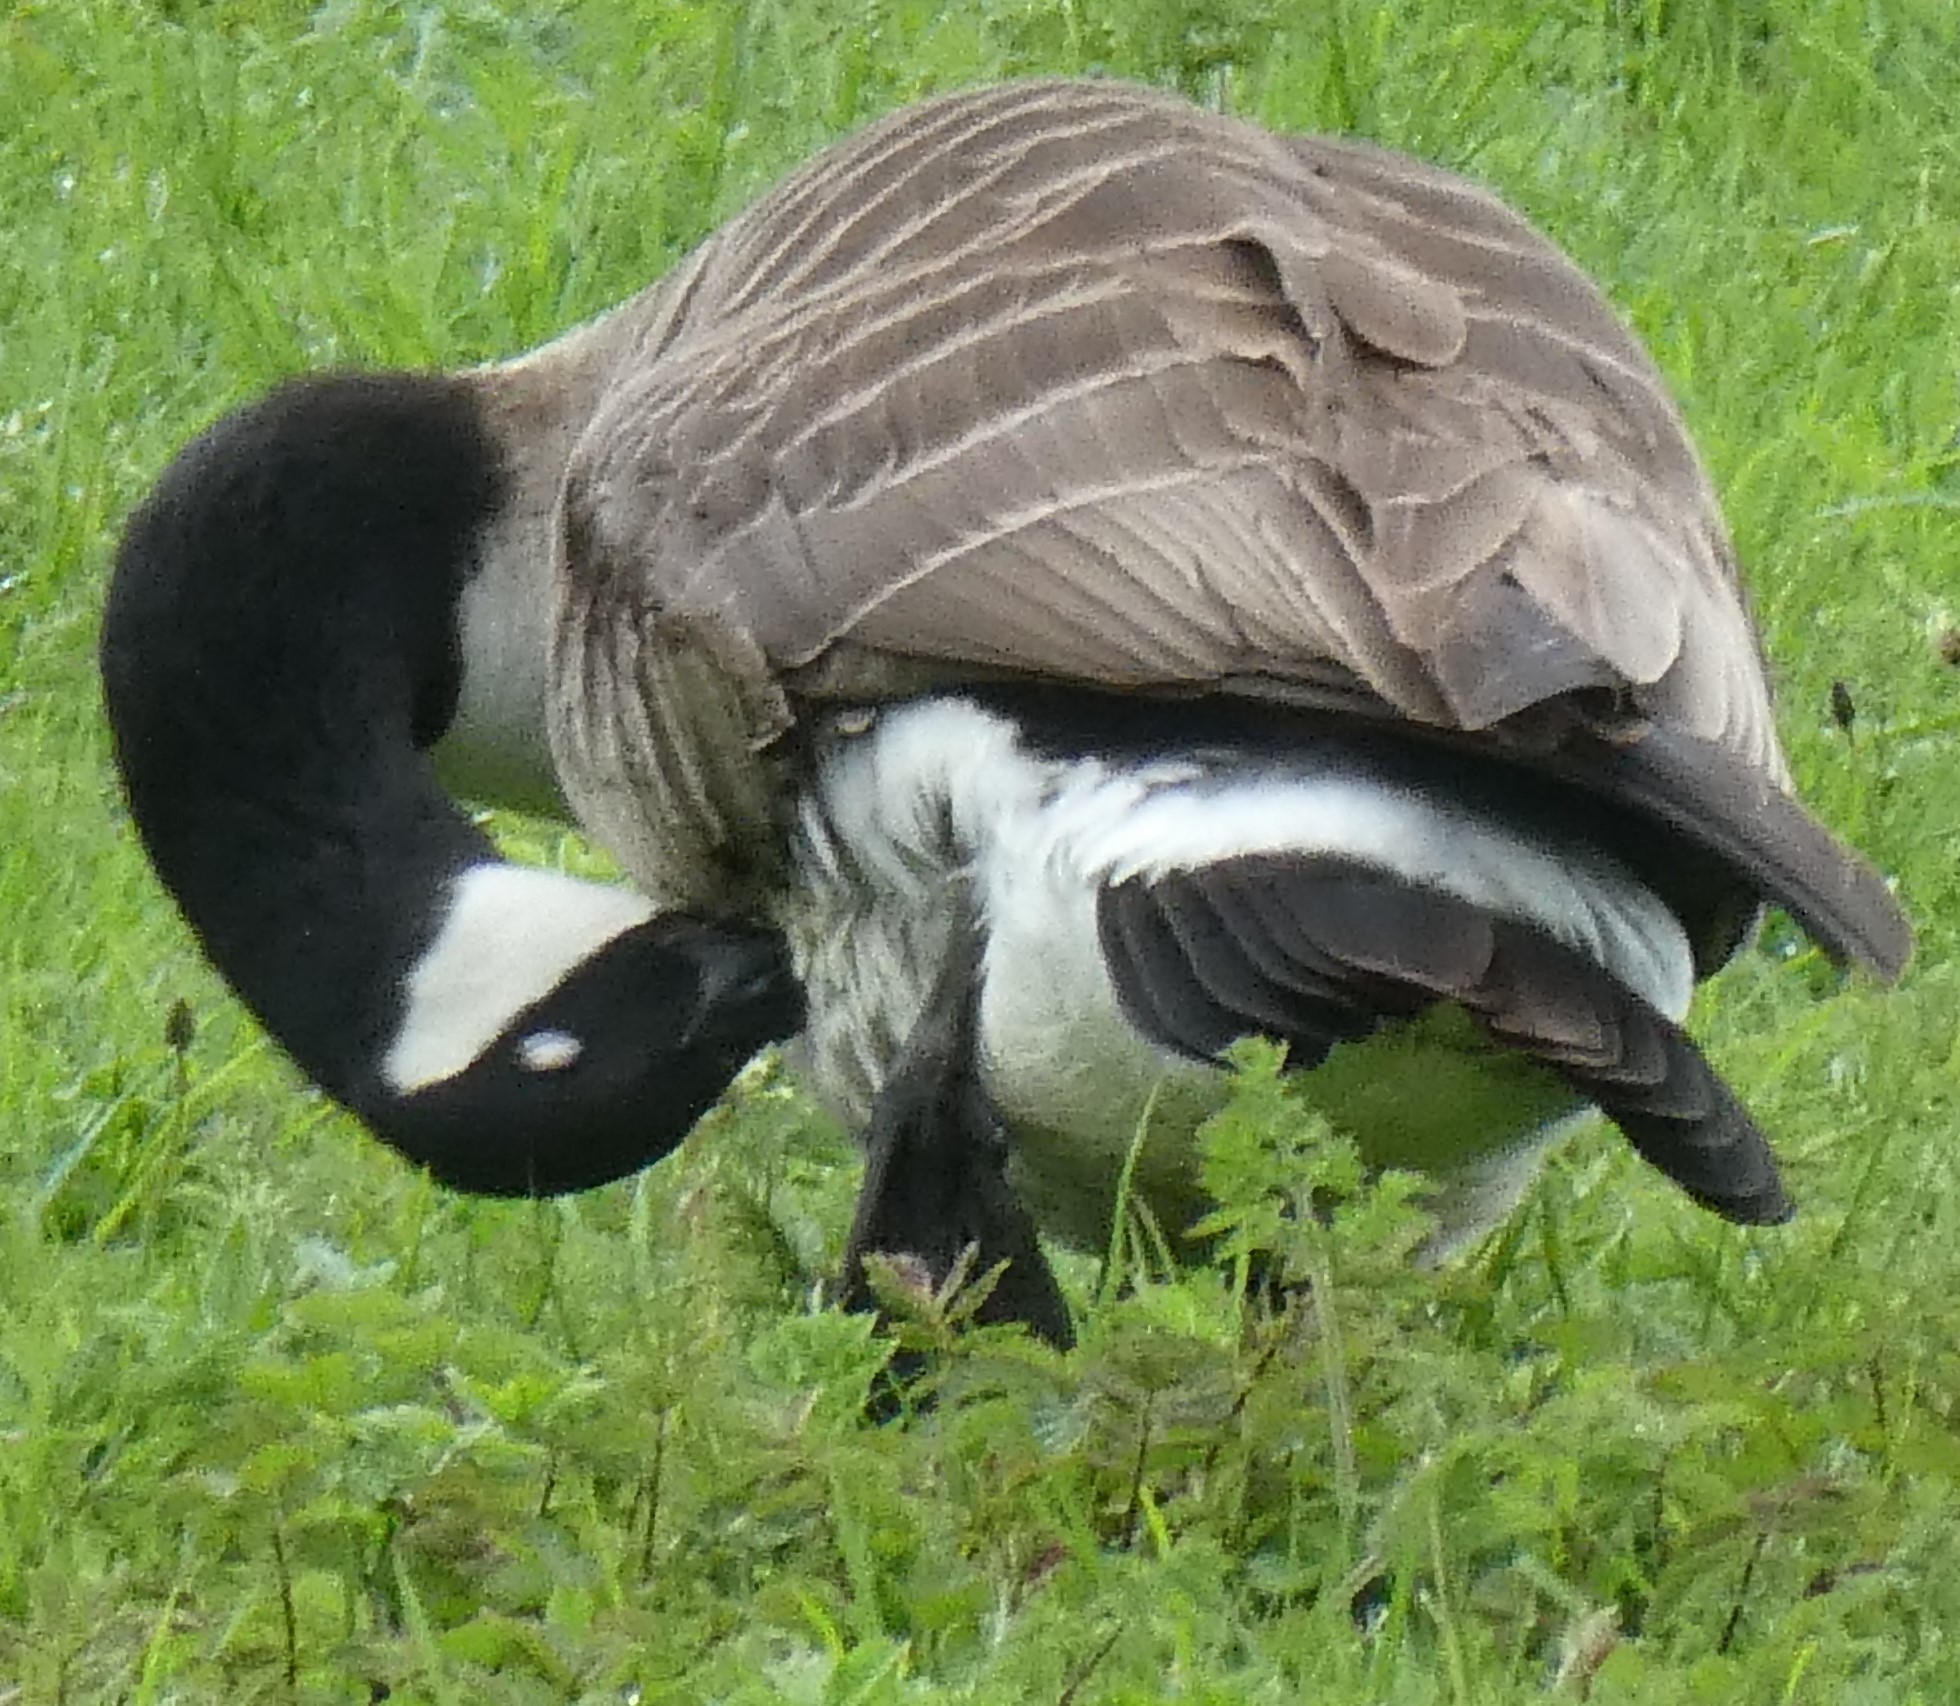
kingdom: Animalia
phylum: Chordata
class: Aves
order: Anseriformes
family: Anatidae
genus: Branta
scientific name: Branta canadensis
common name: Canada goose
